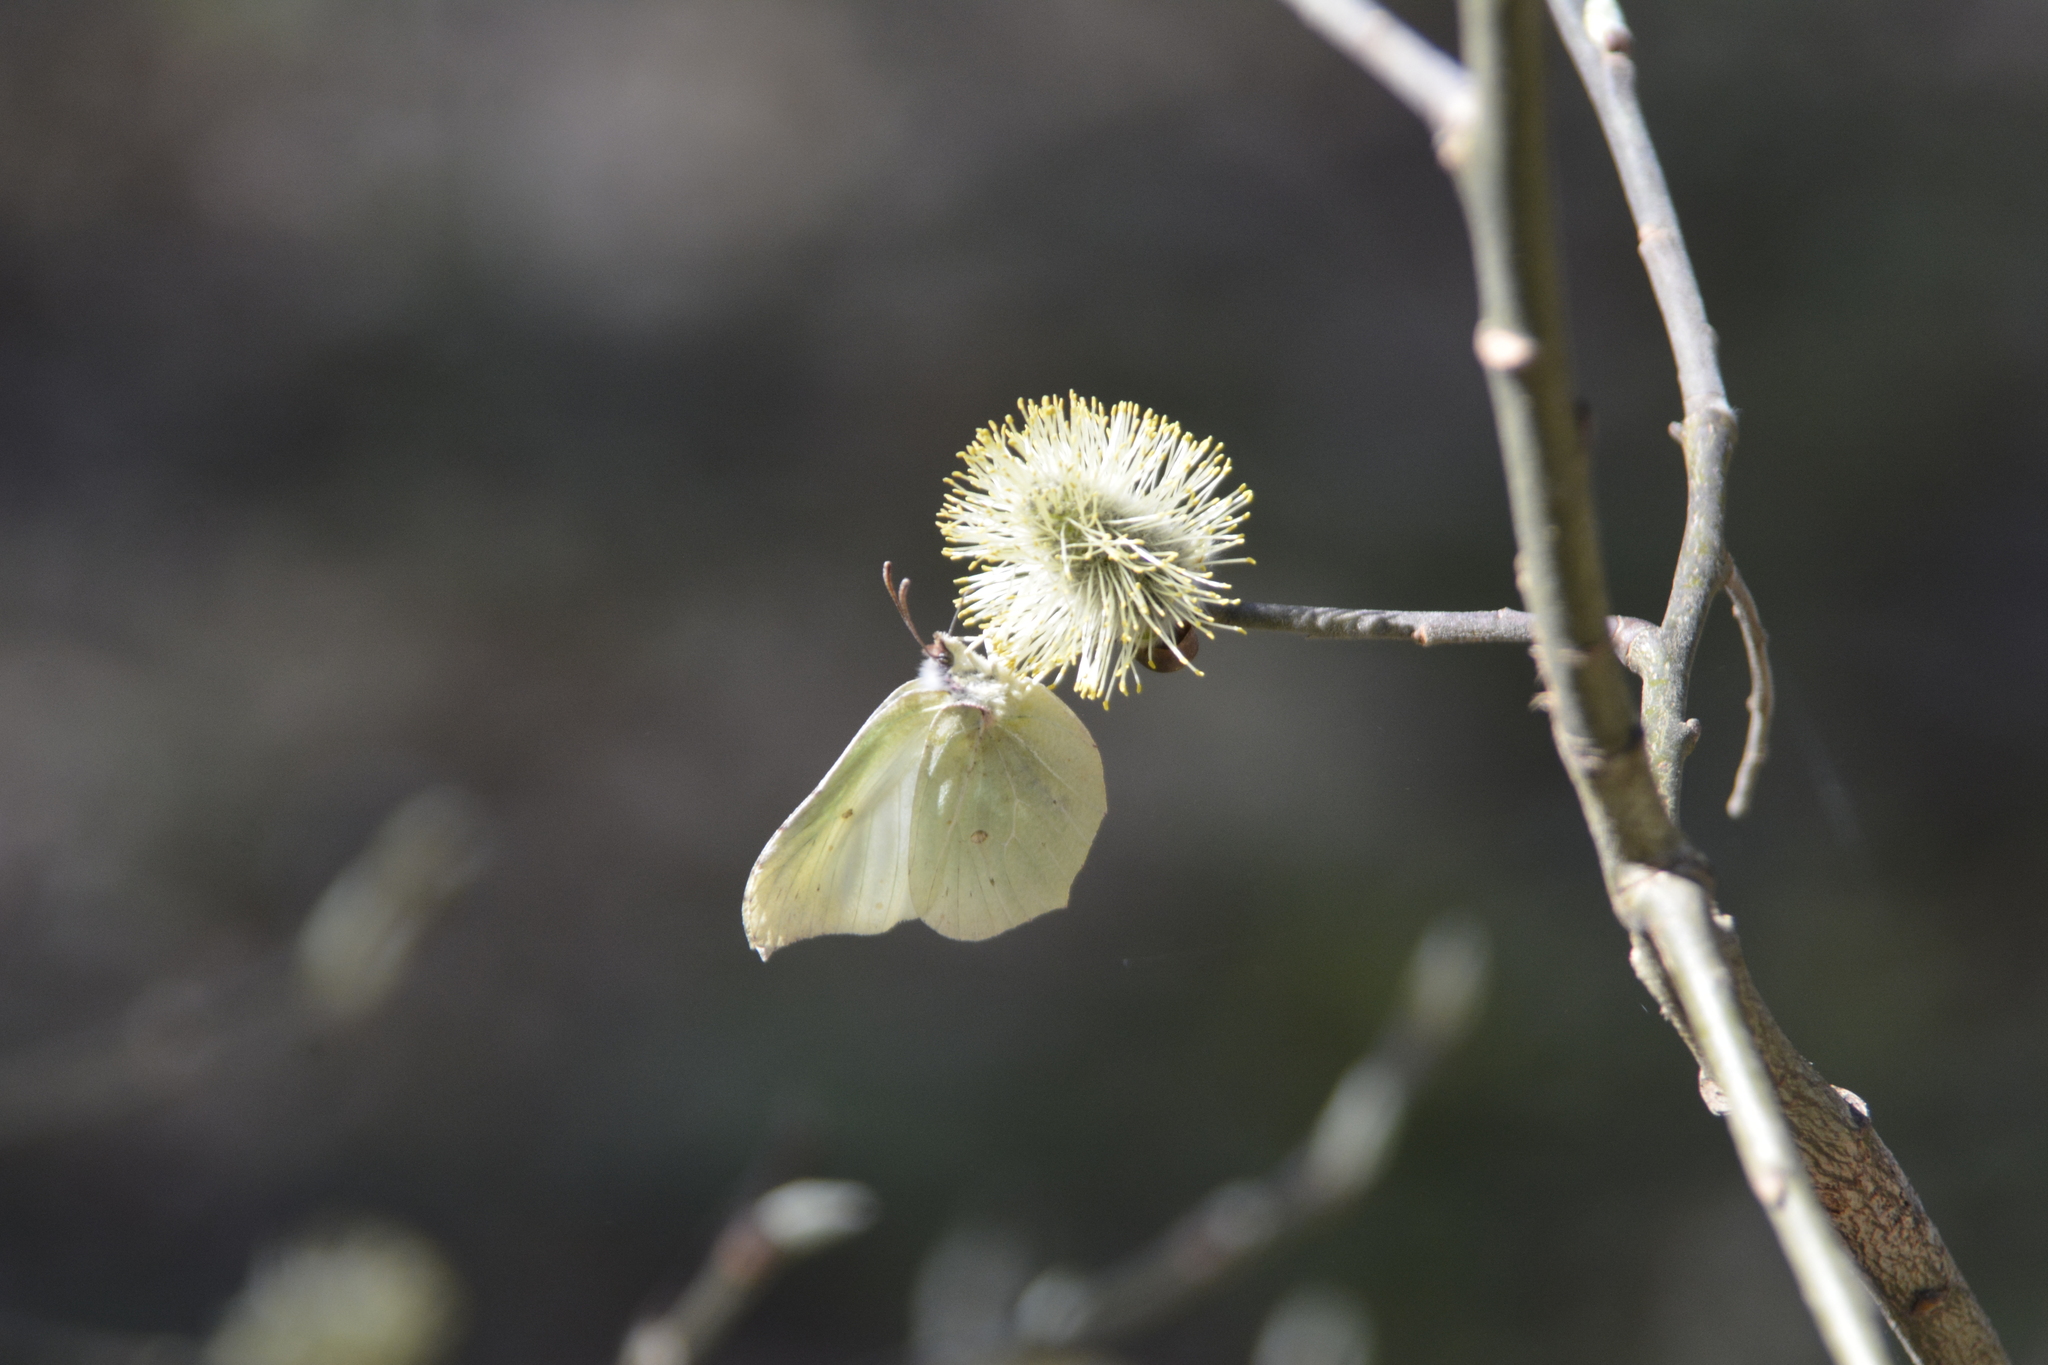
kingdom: Animalia
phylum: Arthropoda
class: Insecta
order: Lepidoptera
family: Pieridae
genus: Gonepteryx
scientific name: Gonepteryx rhamni
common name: Brimstone
